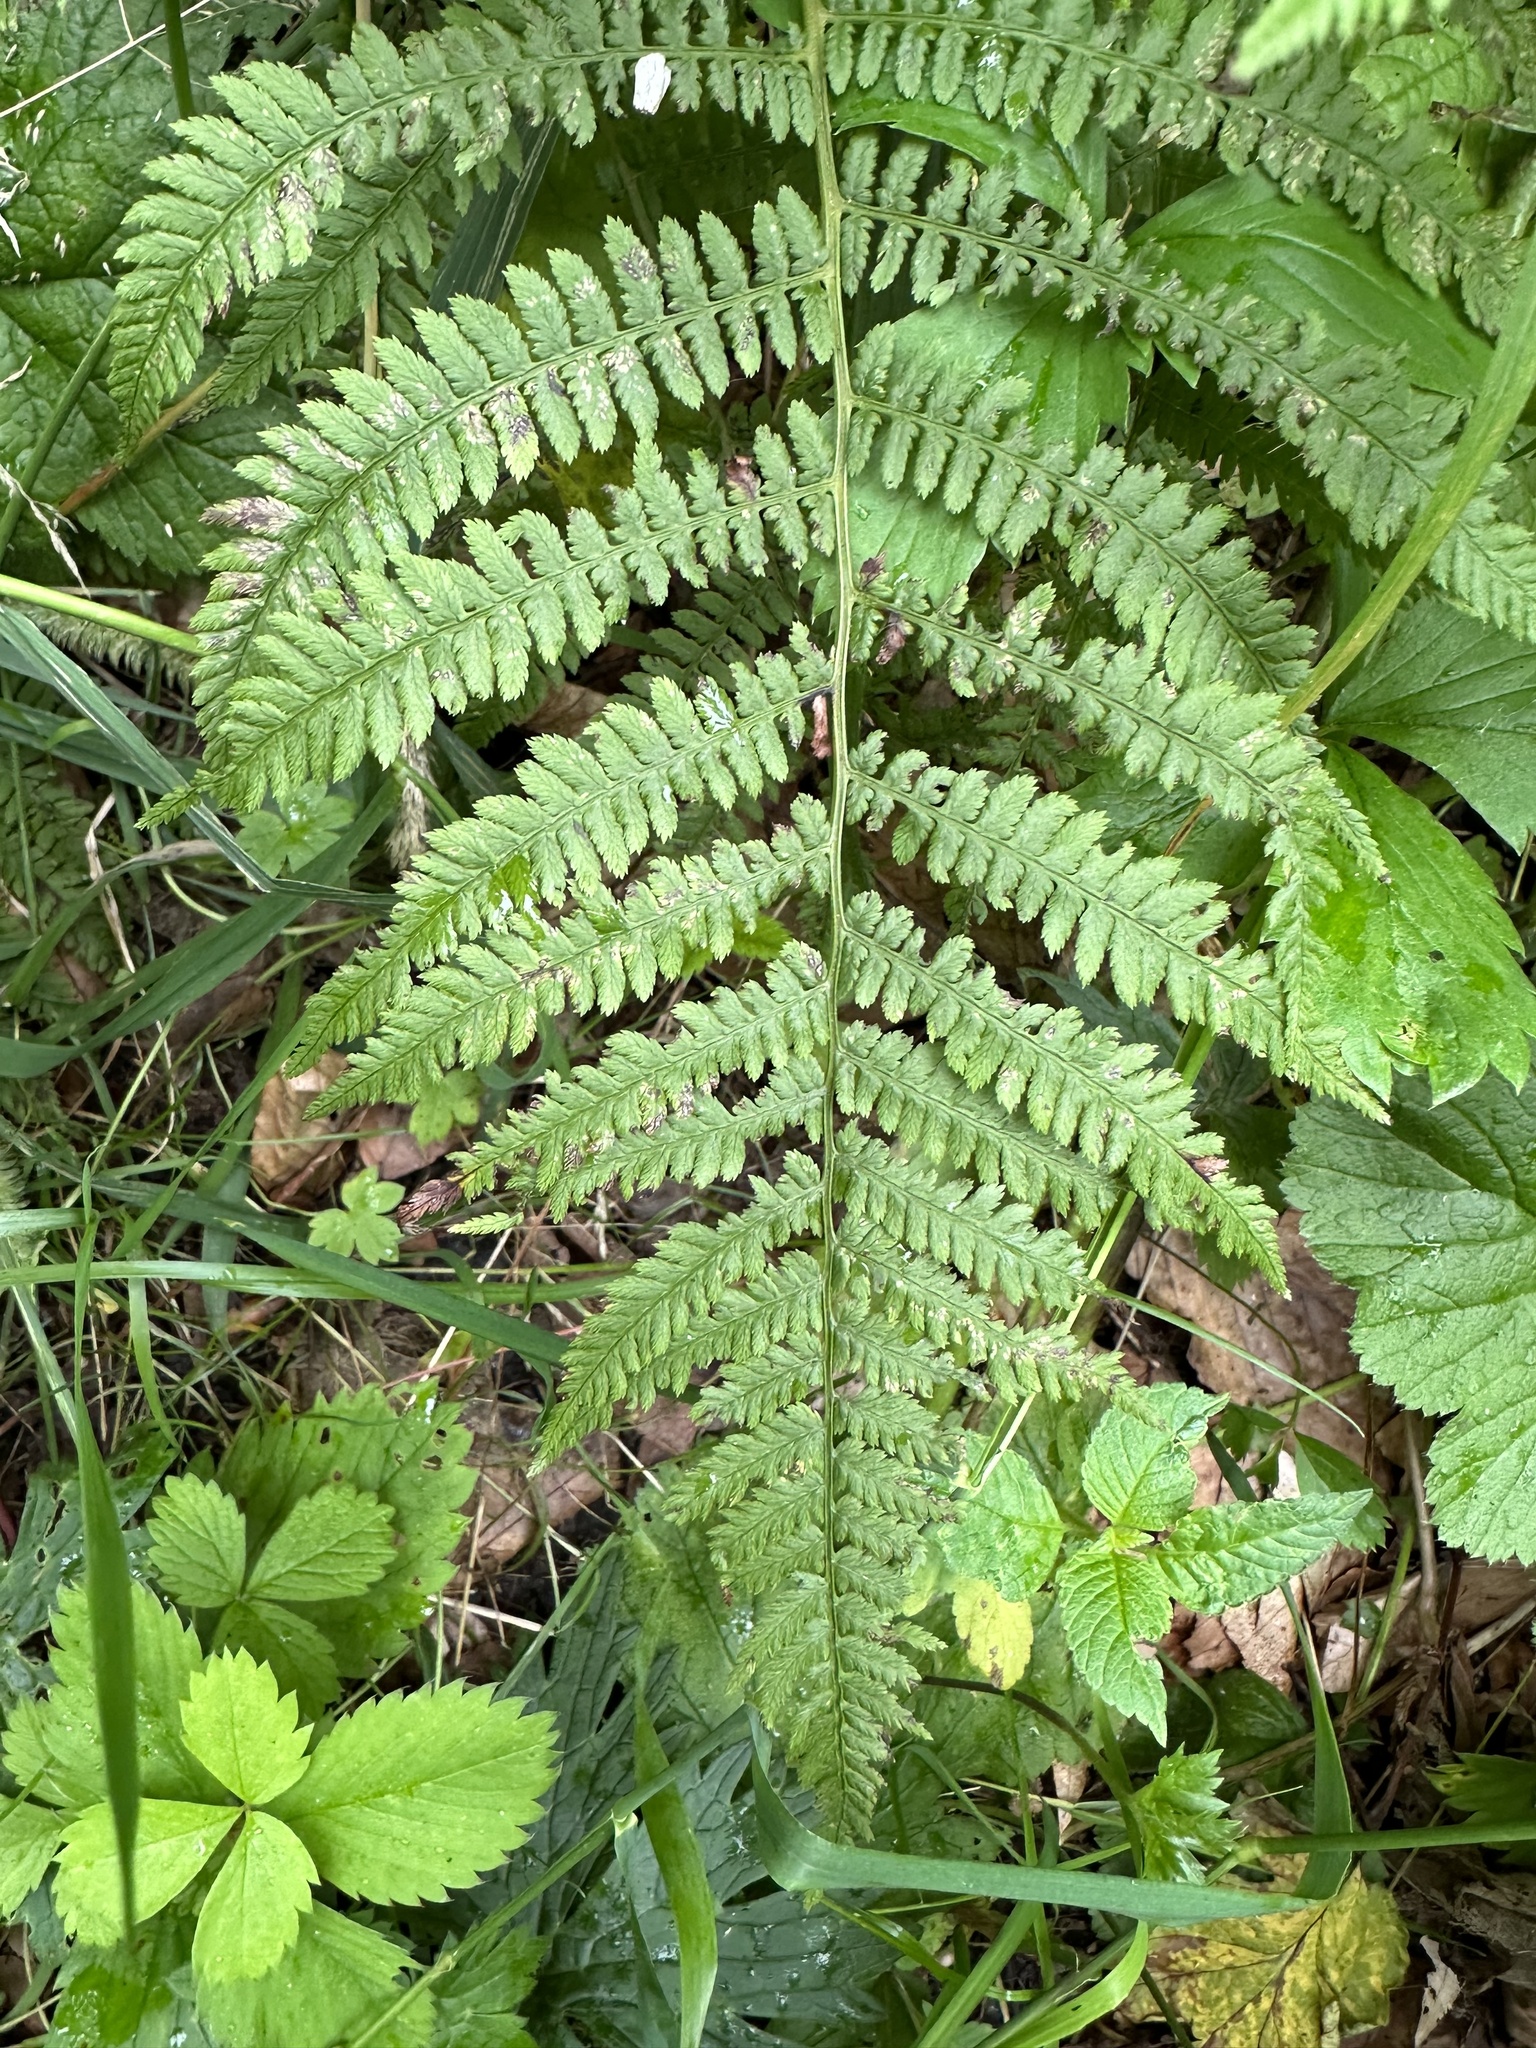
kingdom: Plantae
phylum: Tracheophyta
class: Polypodiopsida
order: Polypodiales
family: Athyriaceae
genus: Athyrium
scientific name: Athyrium angustum
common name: Northern lady fern
